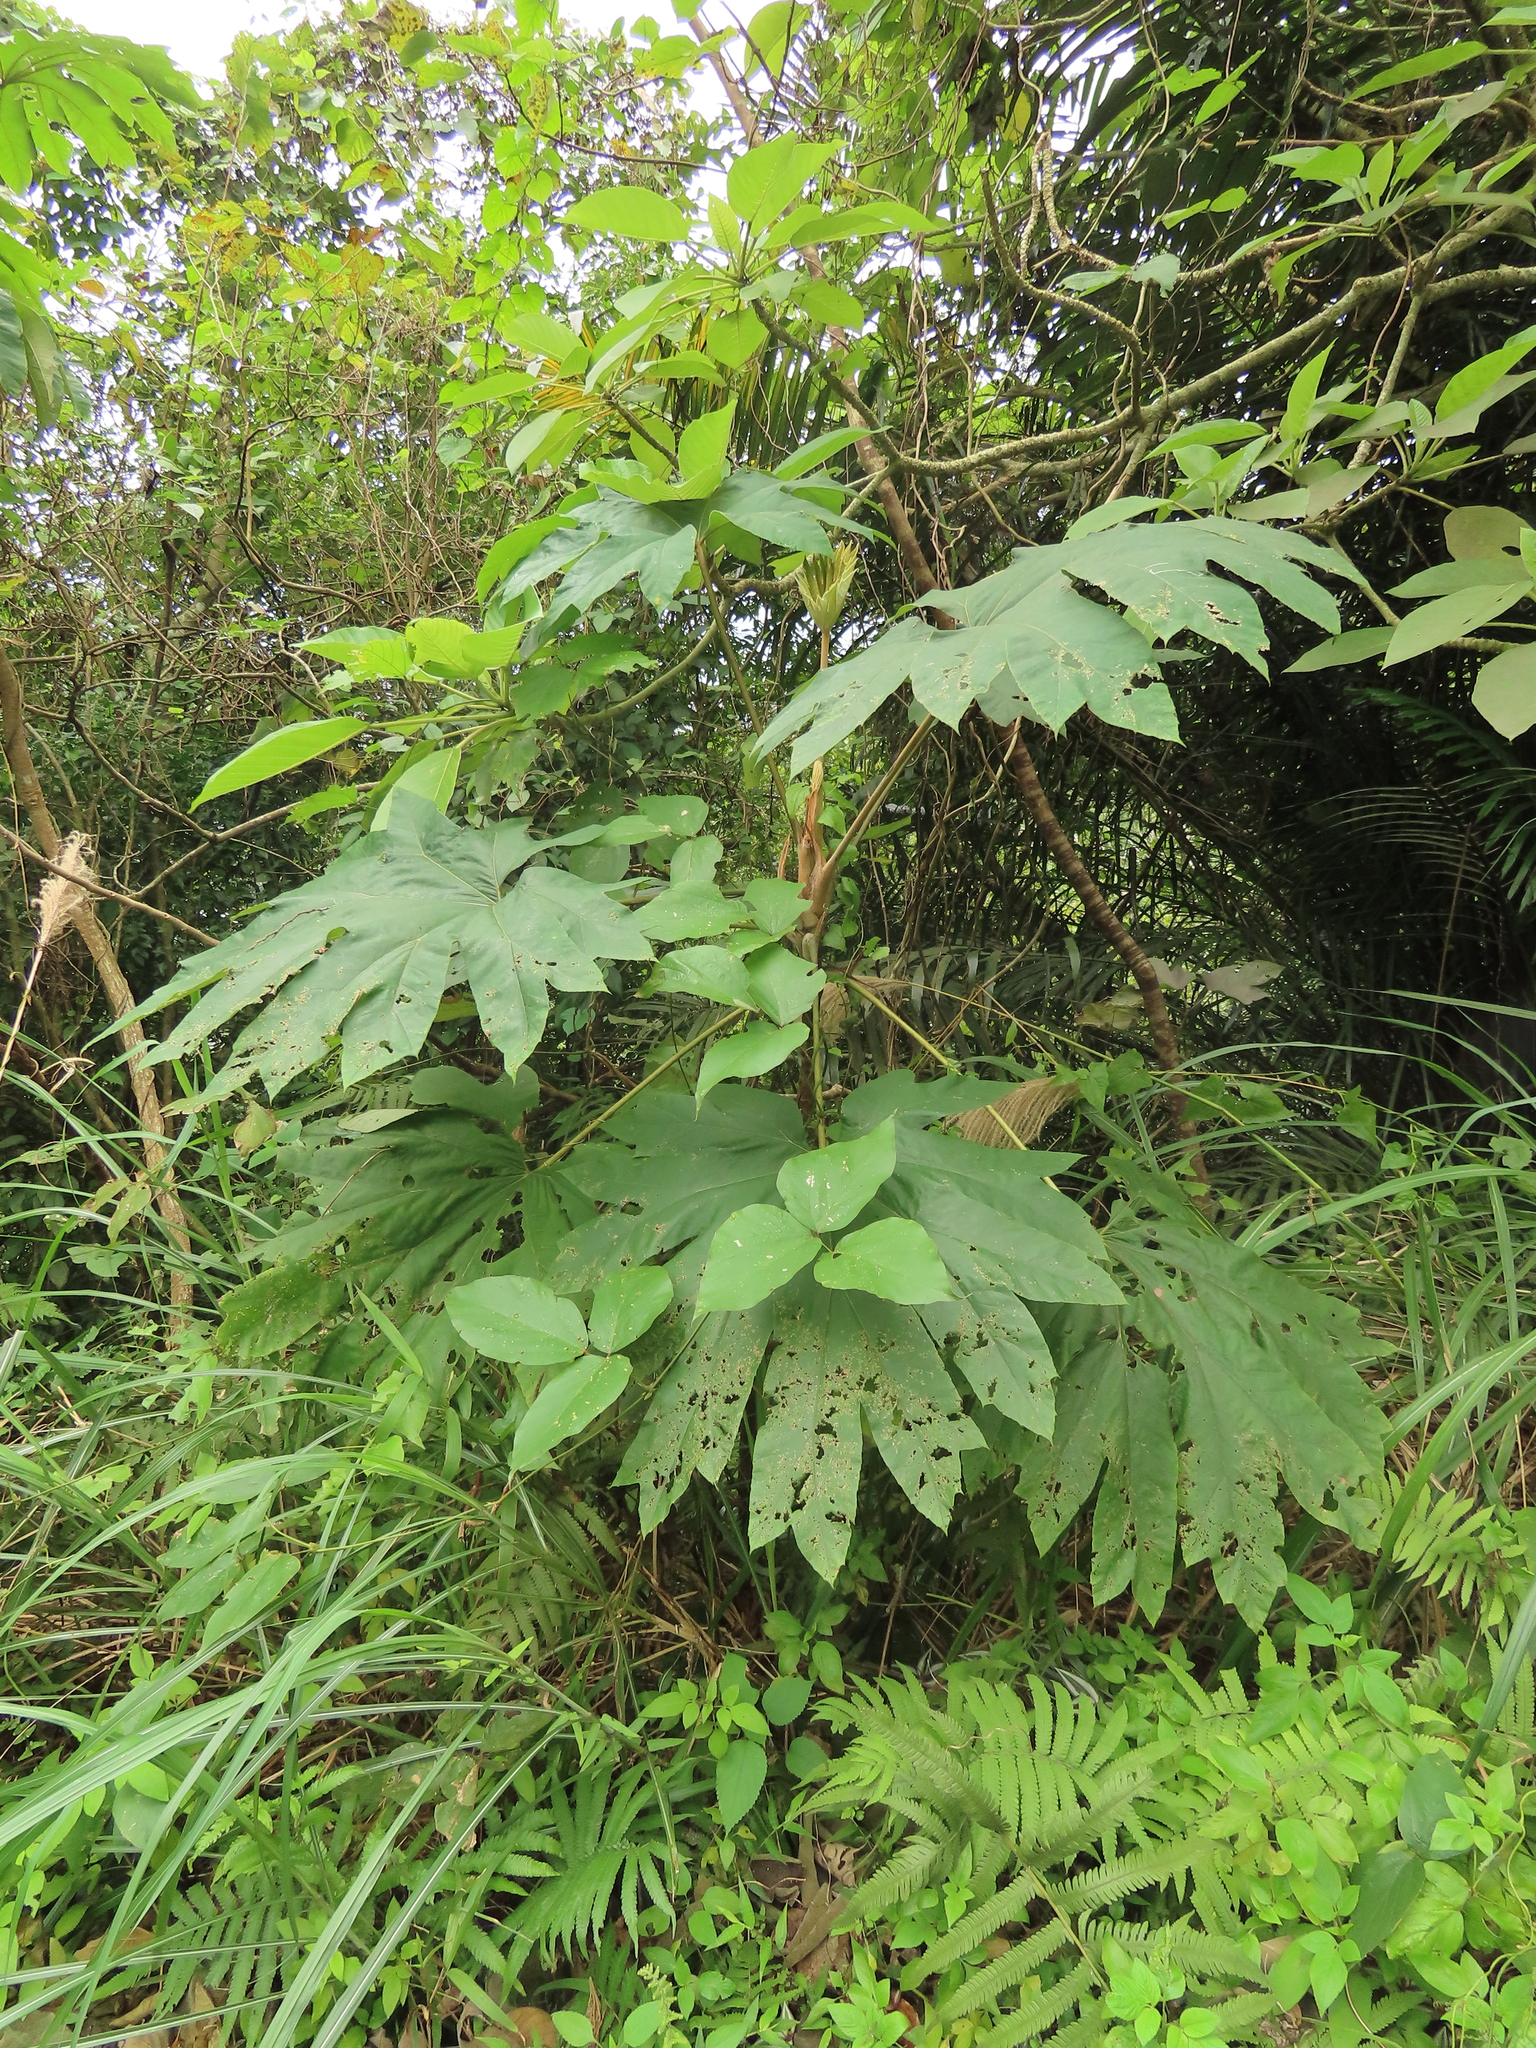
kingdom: Plantae
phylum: Tracheophyta
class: Magnoliopsida
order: Apiales
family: Araliaceae
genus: Tetrapanax
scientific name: Tetrapanax papyrifer
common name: Rice-paper plant
